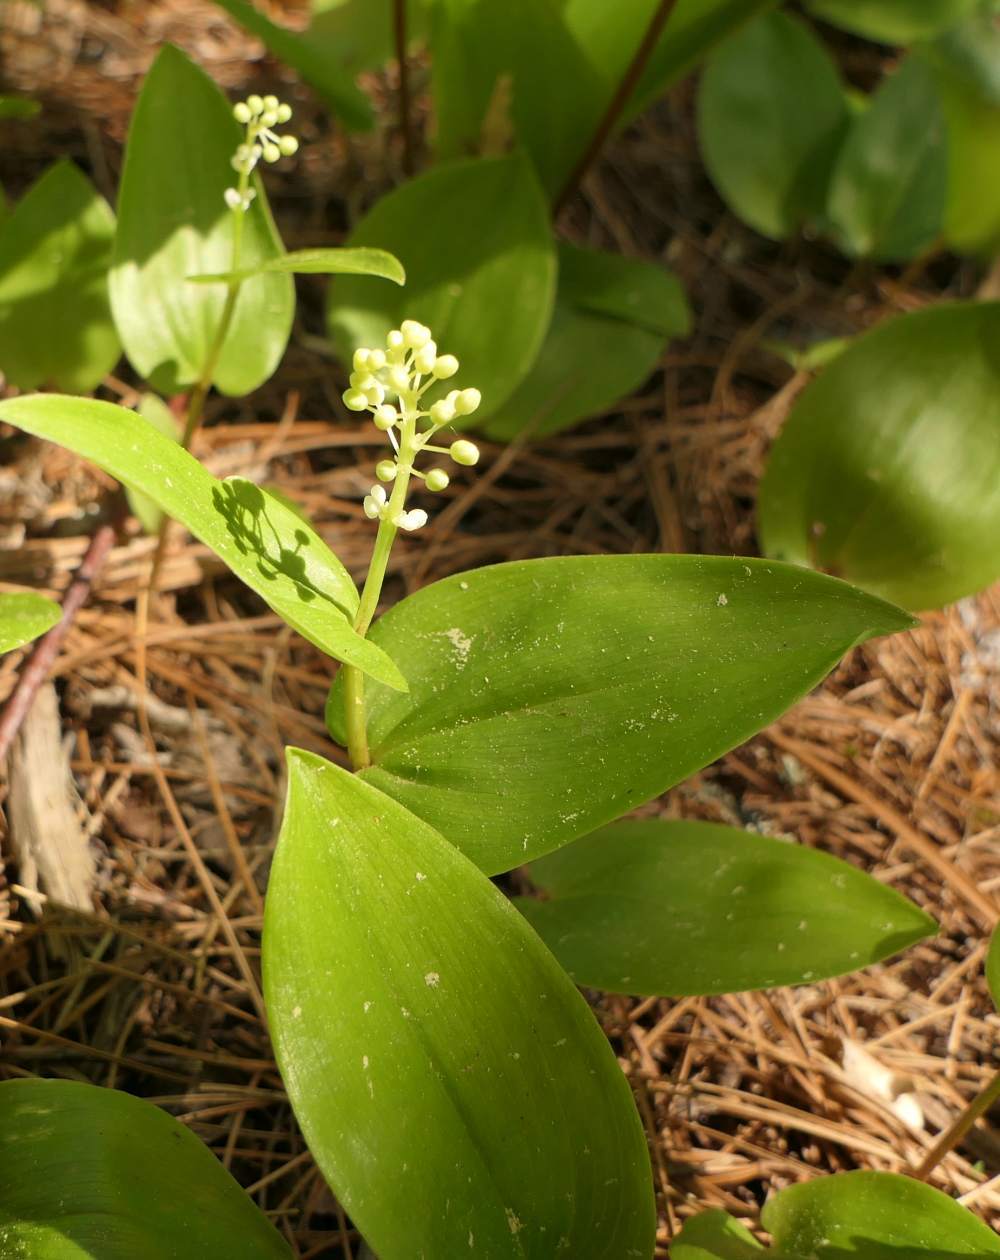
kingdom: Plantae
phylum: Tracheophyta
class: Liliopsida
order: Asparagales
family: Asparagaceae
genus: Maianthemum
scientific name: Maianthemum canadense
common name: False lily-of-the-valley
